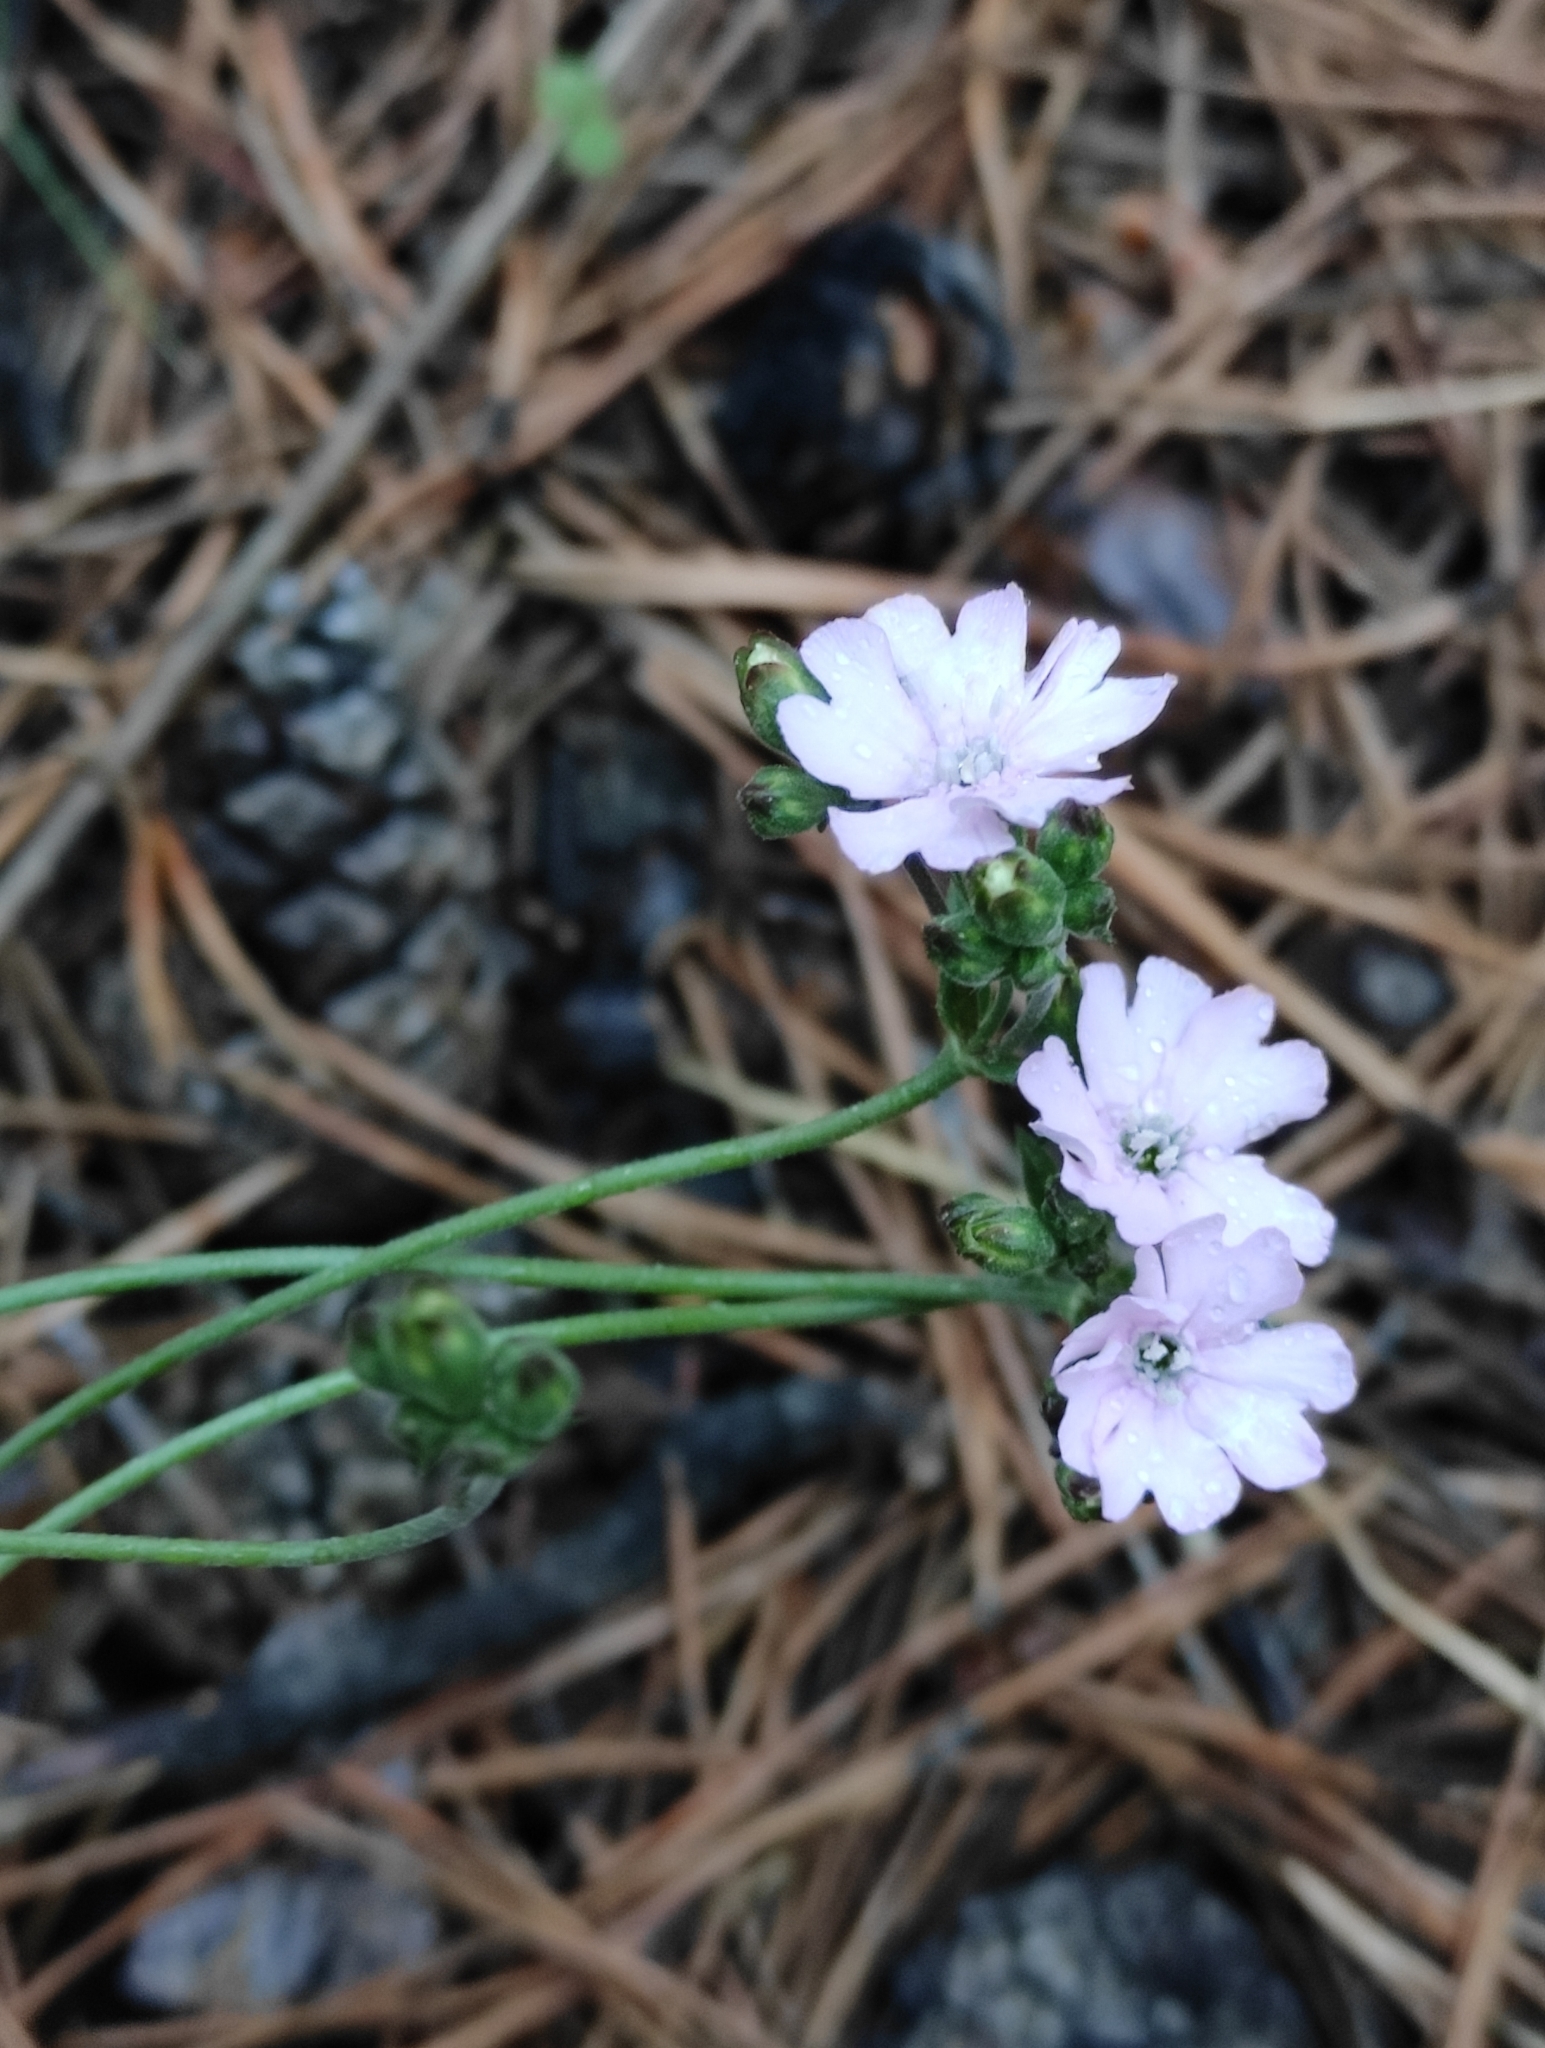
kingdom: Plantae
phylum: Tracheophyta
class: Magnoliopsida
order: Caryophyllales
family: Caryophyllaceae
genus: Silene
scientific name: Silene orientalimongolica
